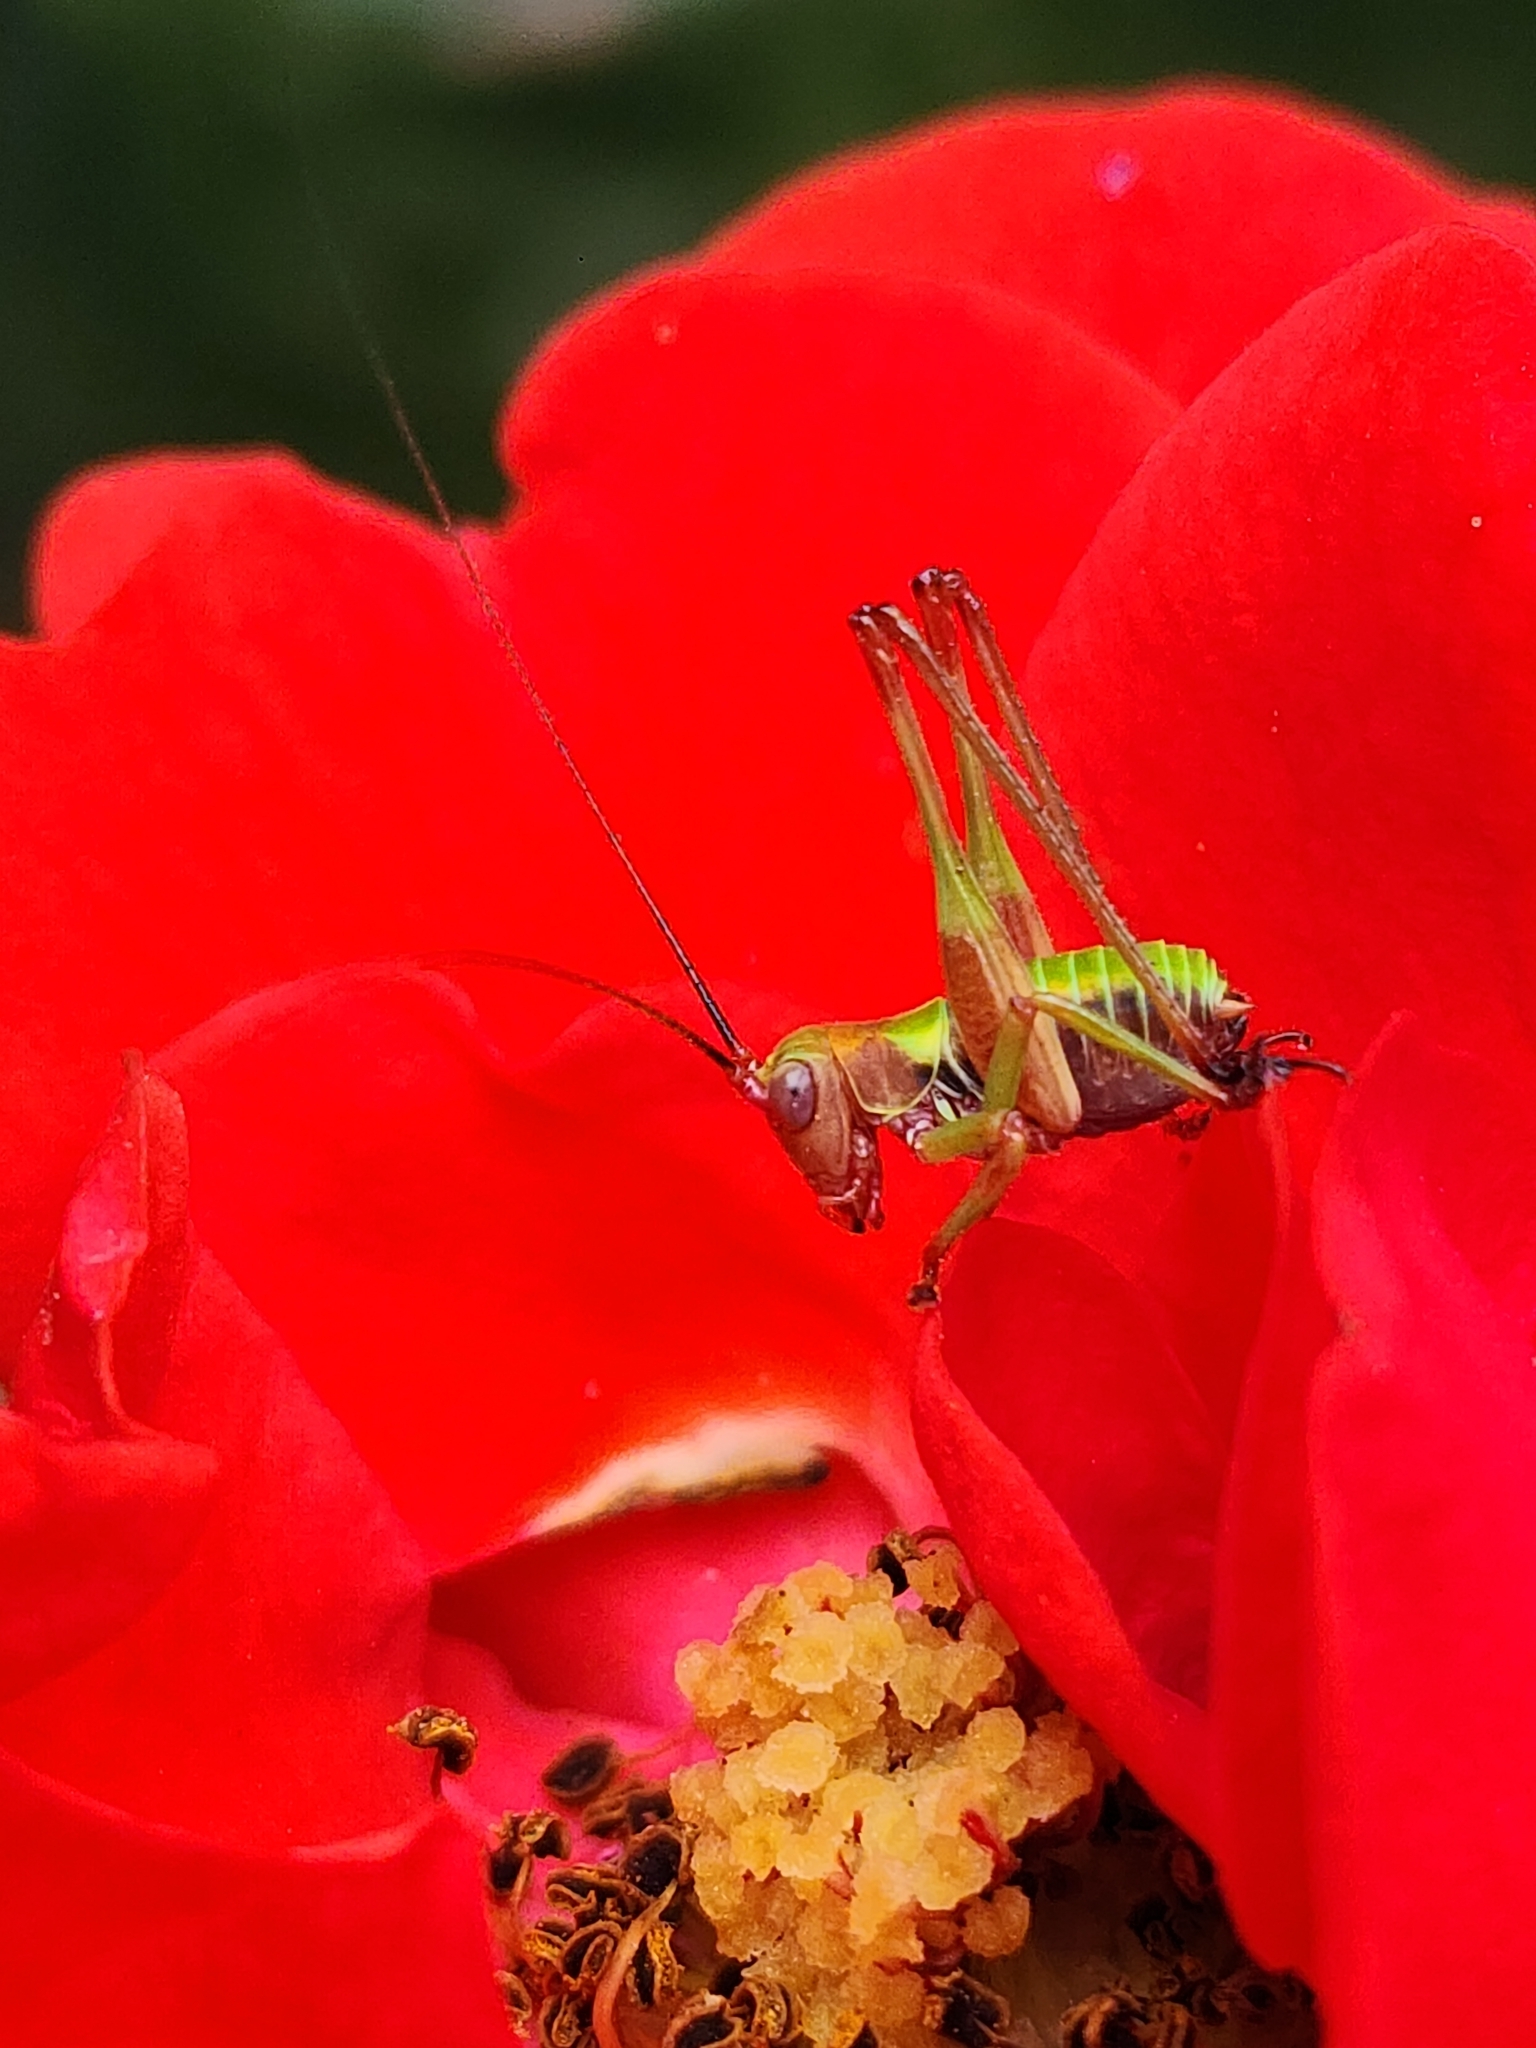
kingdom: Animalia
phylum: Arthropoda
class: Insecta
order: Orthoptera
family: Tettigoniidae
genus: Enthephippion
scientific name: Enthephippion borellii
